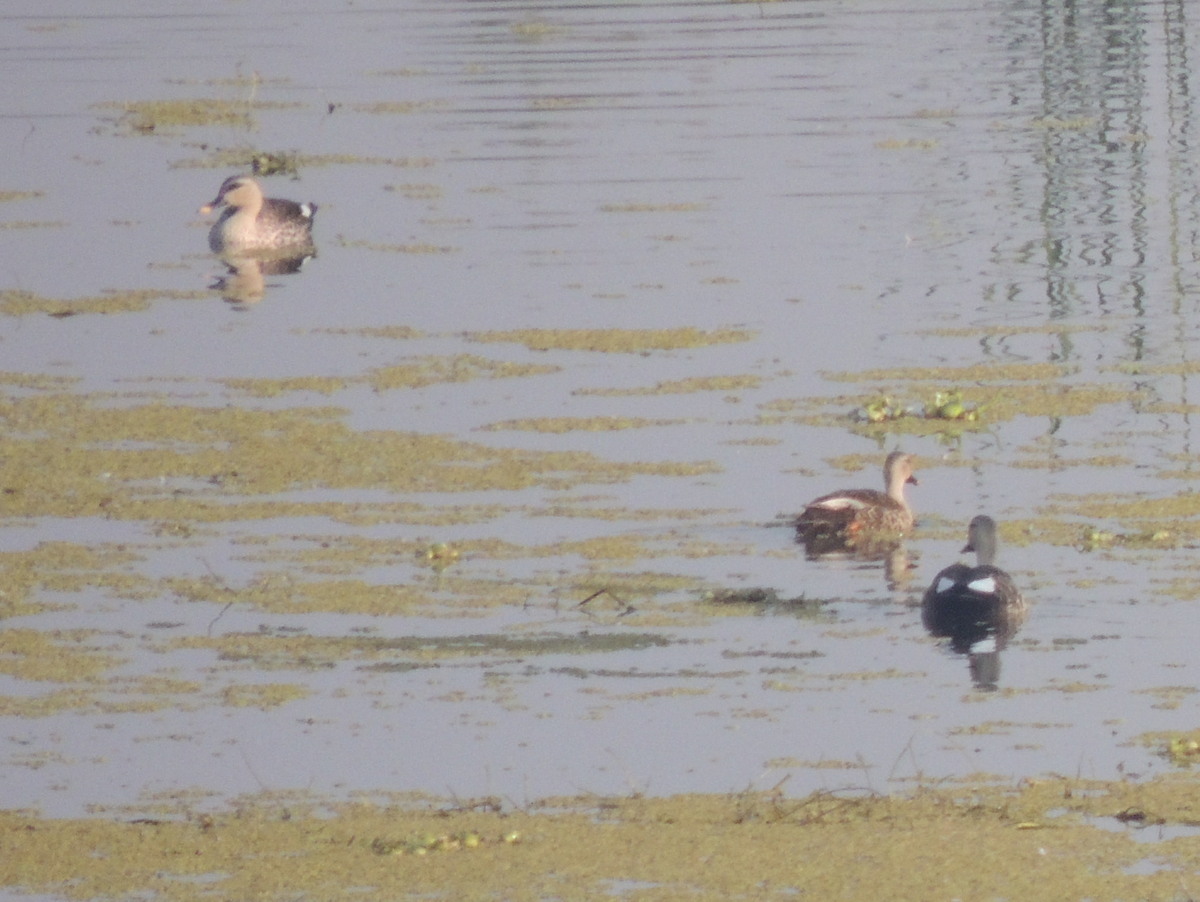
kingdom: Animalia
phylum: Chordata
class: Aves
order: Anseriformes
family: Anatidae
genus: Anas
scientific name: Anas poecilorhyncha
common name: Indian spot-billed duck
